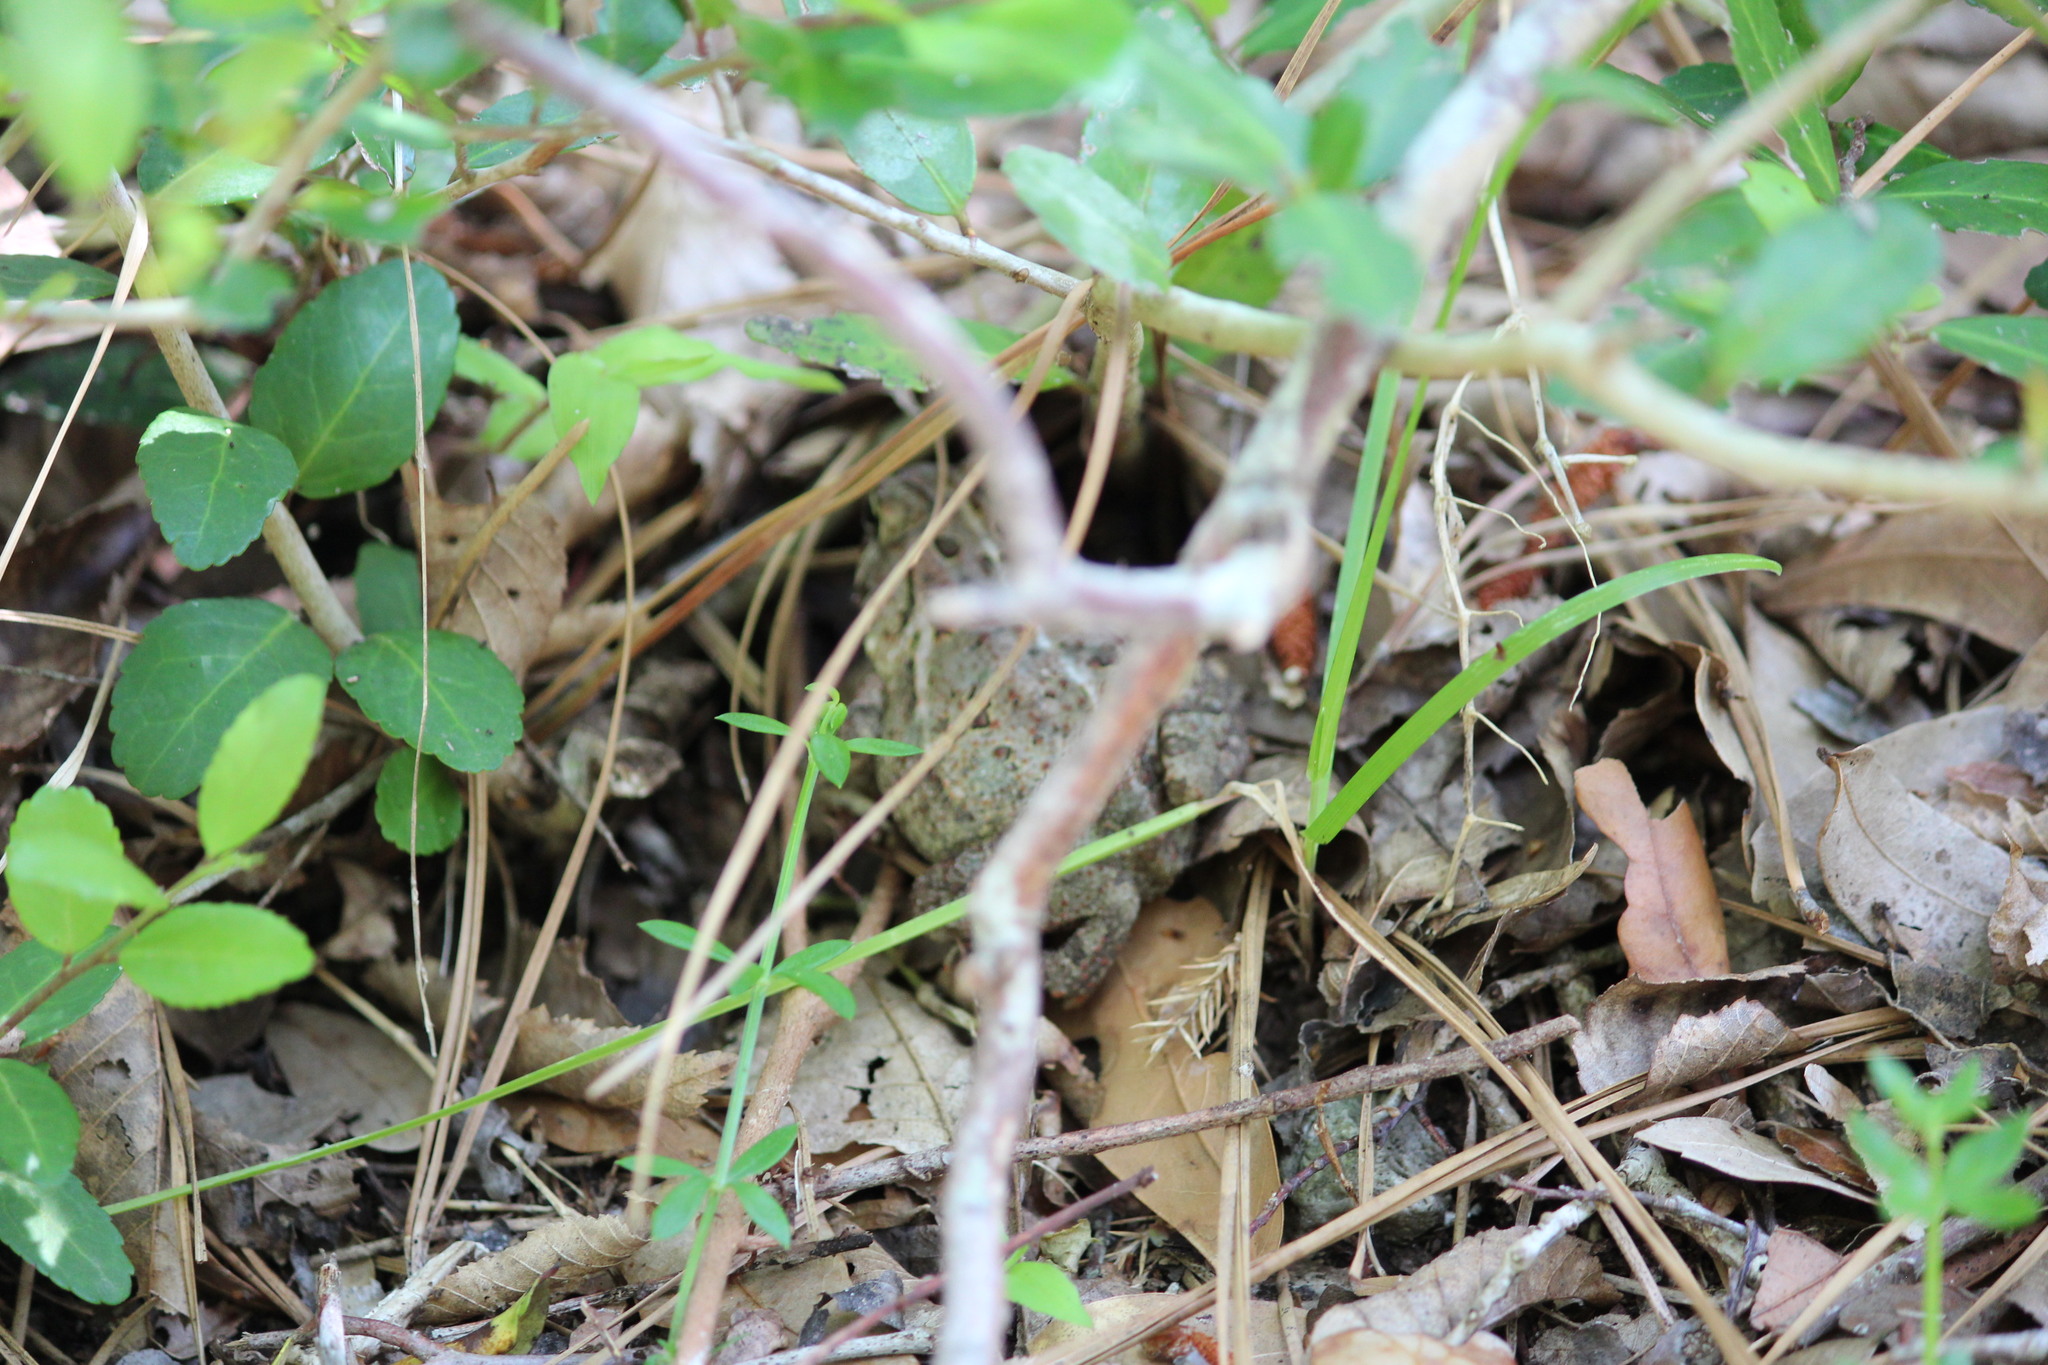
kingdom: Animalia
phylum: Chordata
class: Amphibia
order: Anura
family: Bufonidae
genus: Anaxyrus
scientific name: Anaxyrus fowleri
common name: Fowler's toad
